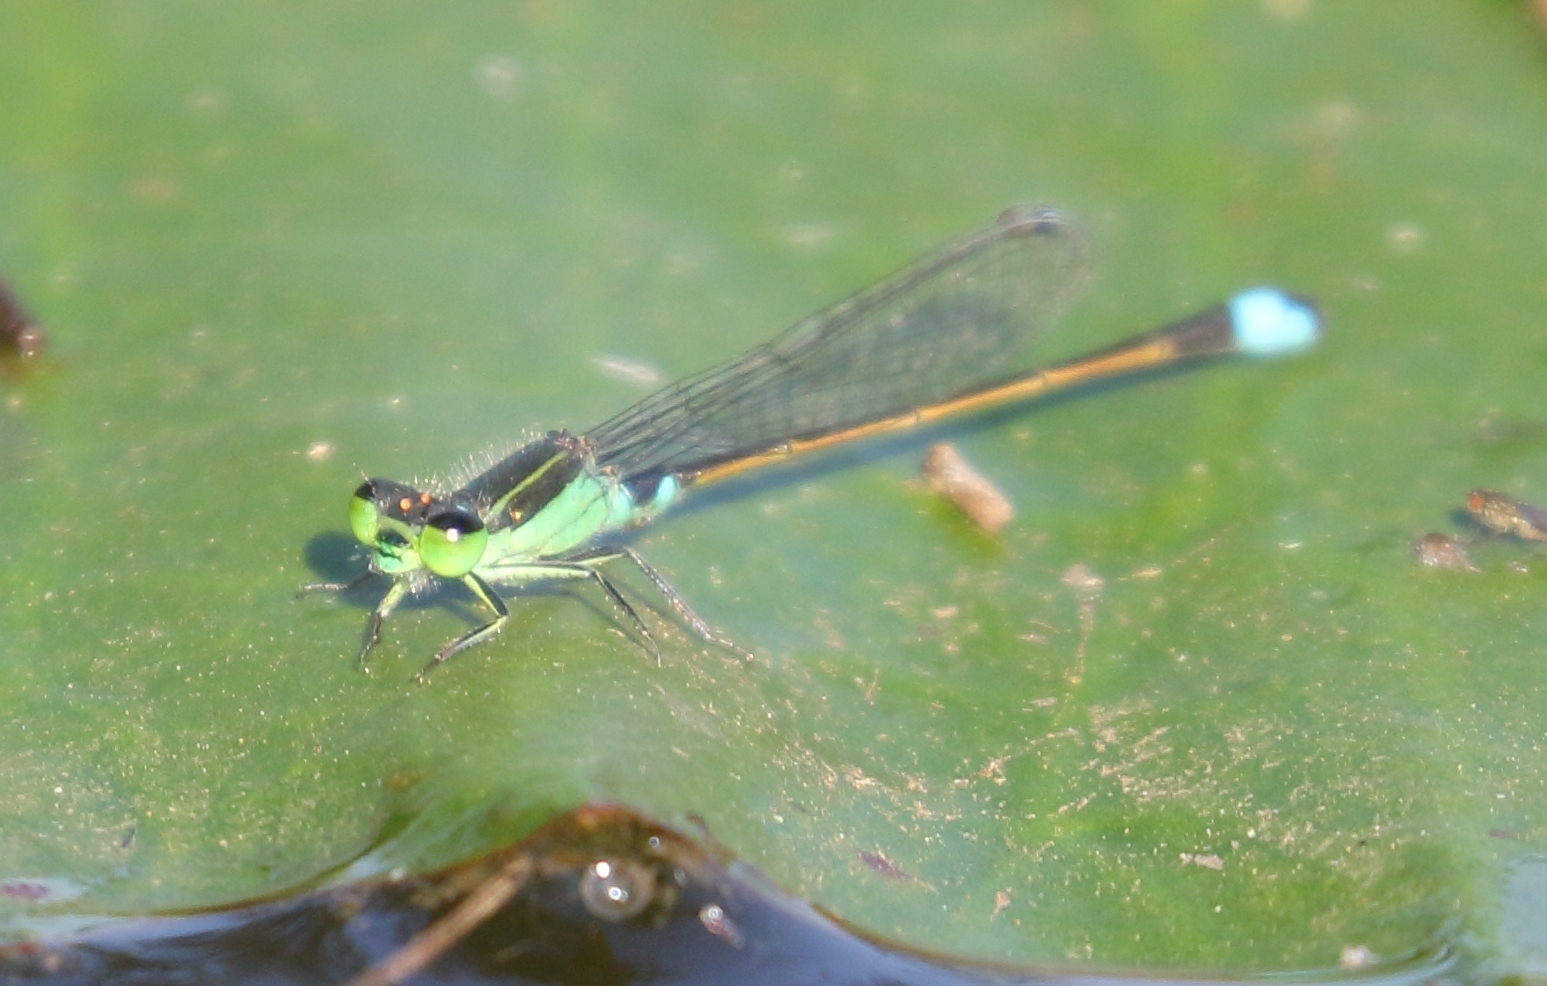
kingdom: Animalia
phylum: Arthropoda
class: Insecta
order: Odonata
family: Coenagrionidae
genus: Ischnura
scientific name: Ischnura senegalensis
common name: Tropical bluetail
